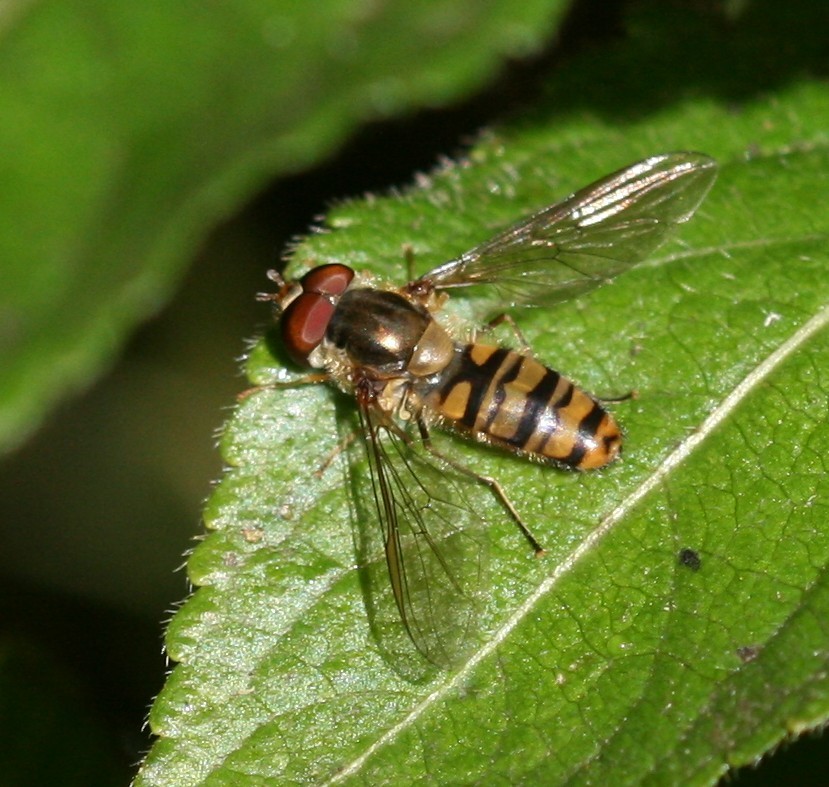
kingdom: Animalia
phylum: Arthropoda
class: Insecta
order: Diptera
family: Syrphidae
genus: Episyrphus
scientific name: Episyrphus balteatus
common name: Marmalade hoverfly
